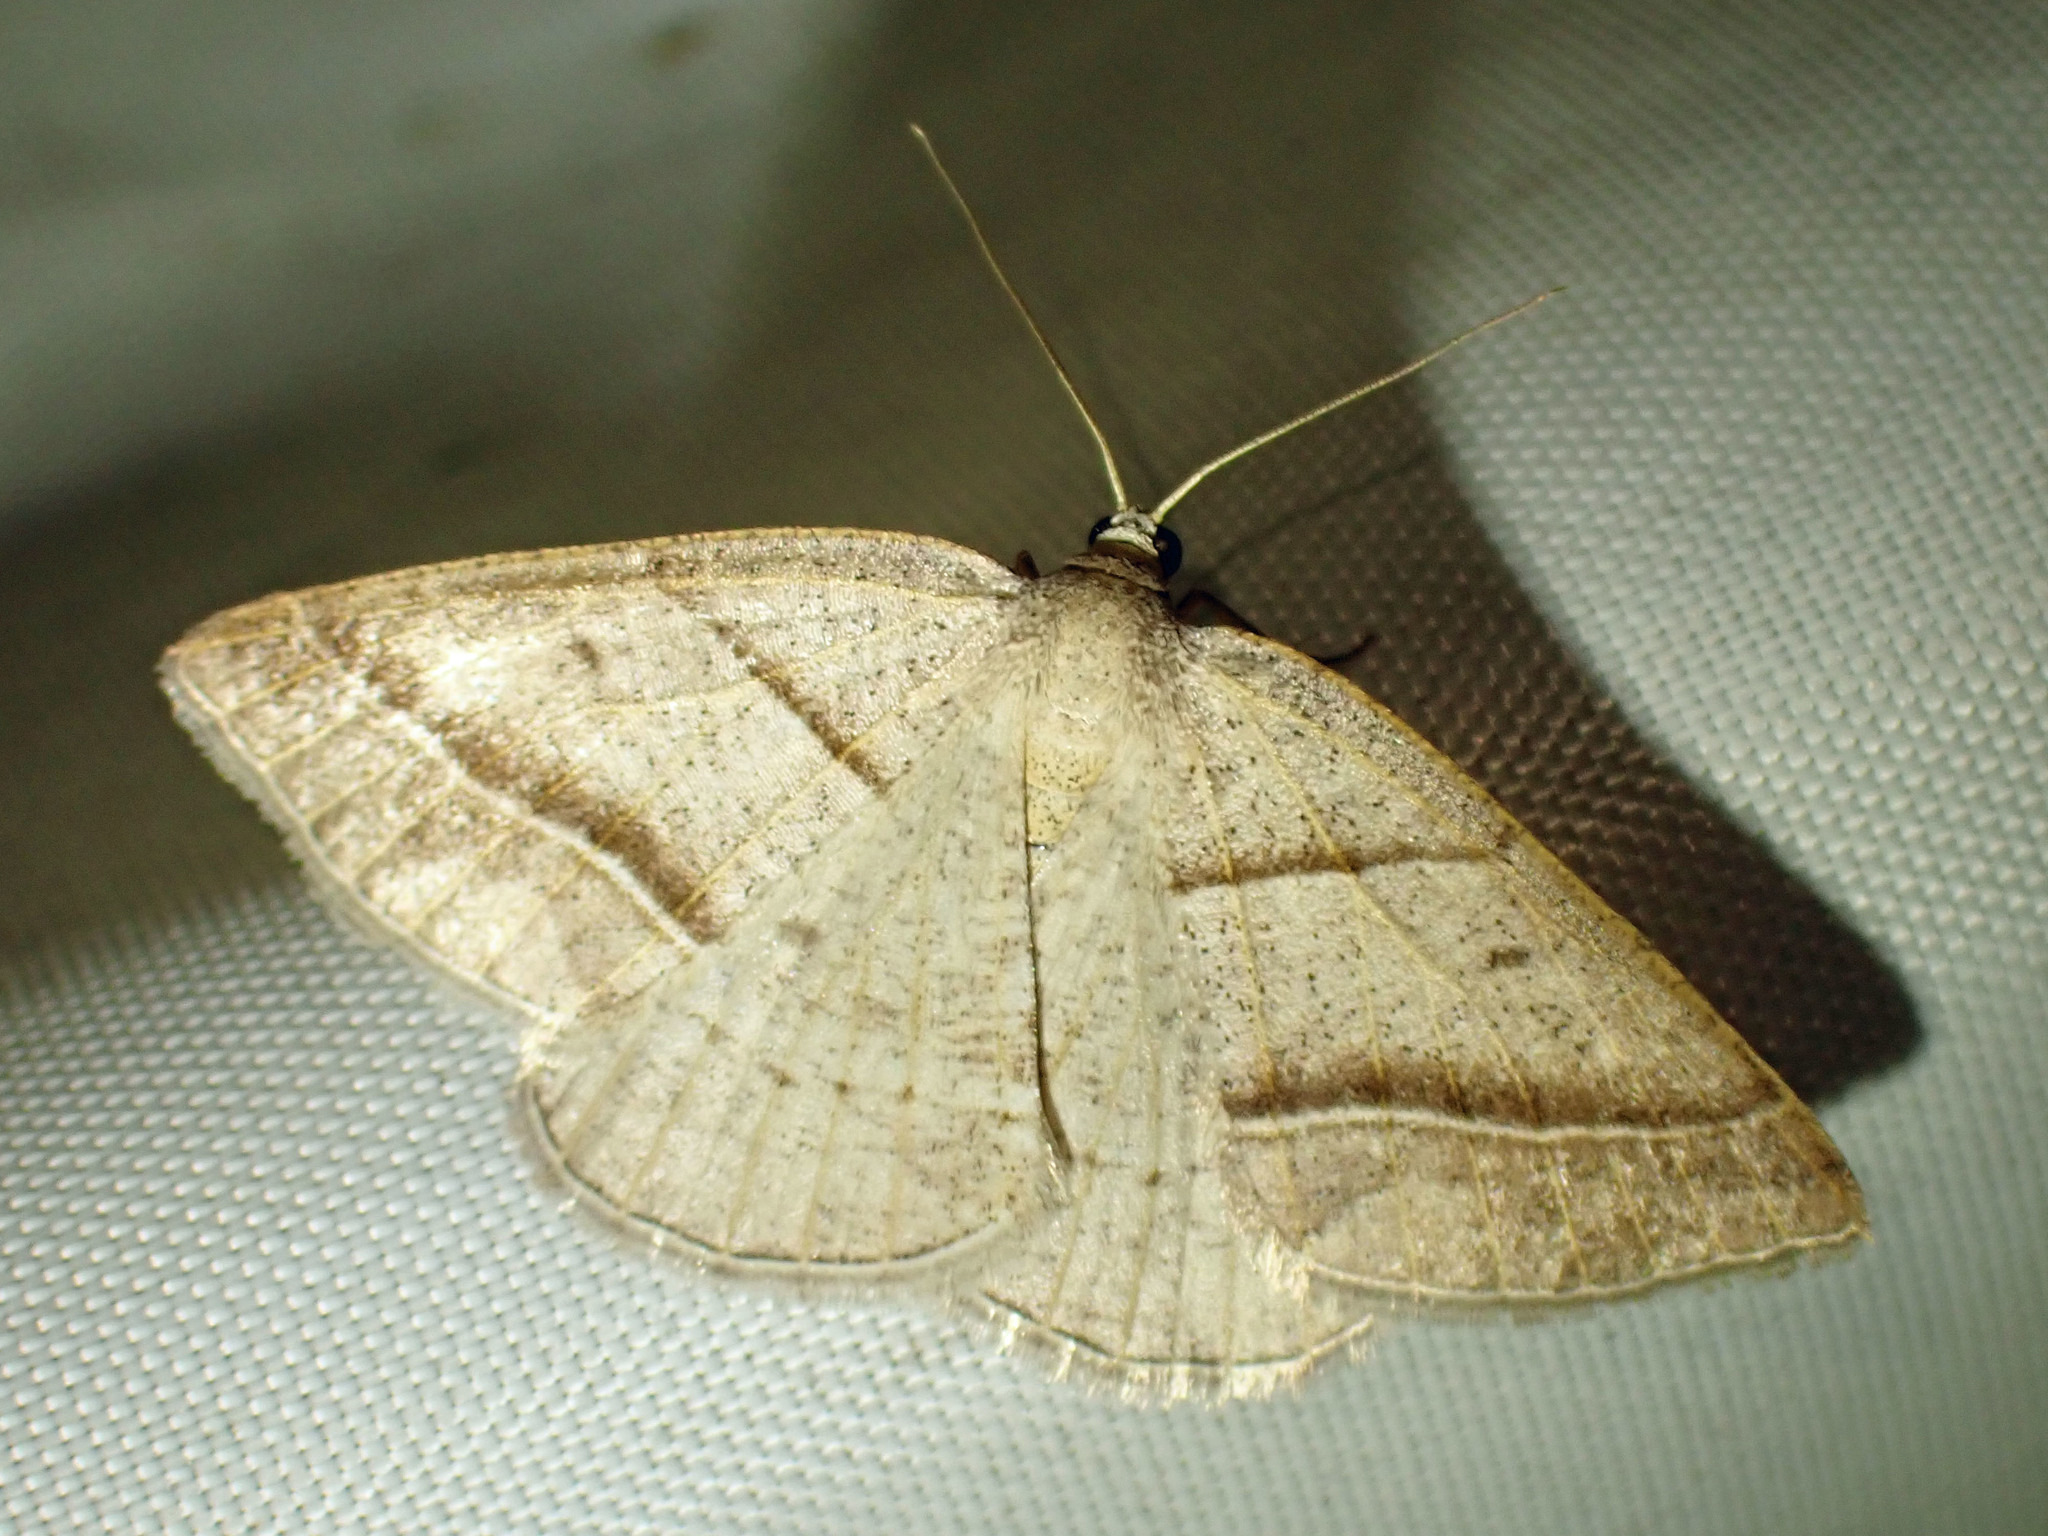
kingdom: Animalia
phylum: Arthropoda
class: Insecta
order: Lepidoptera
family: Pterophoridae
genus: Pterophorus
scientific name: Pterophorus Petrophora subaequaria
